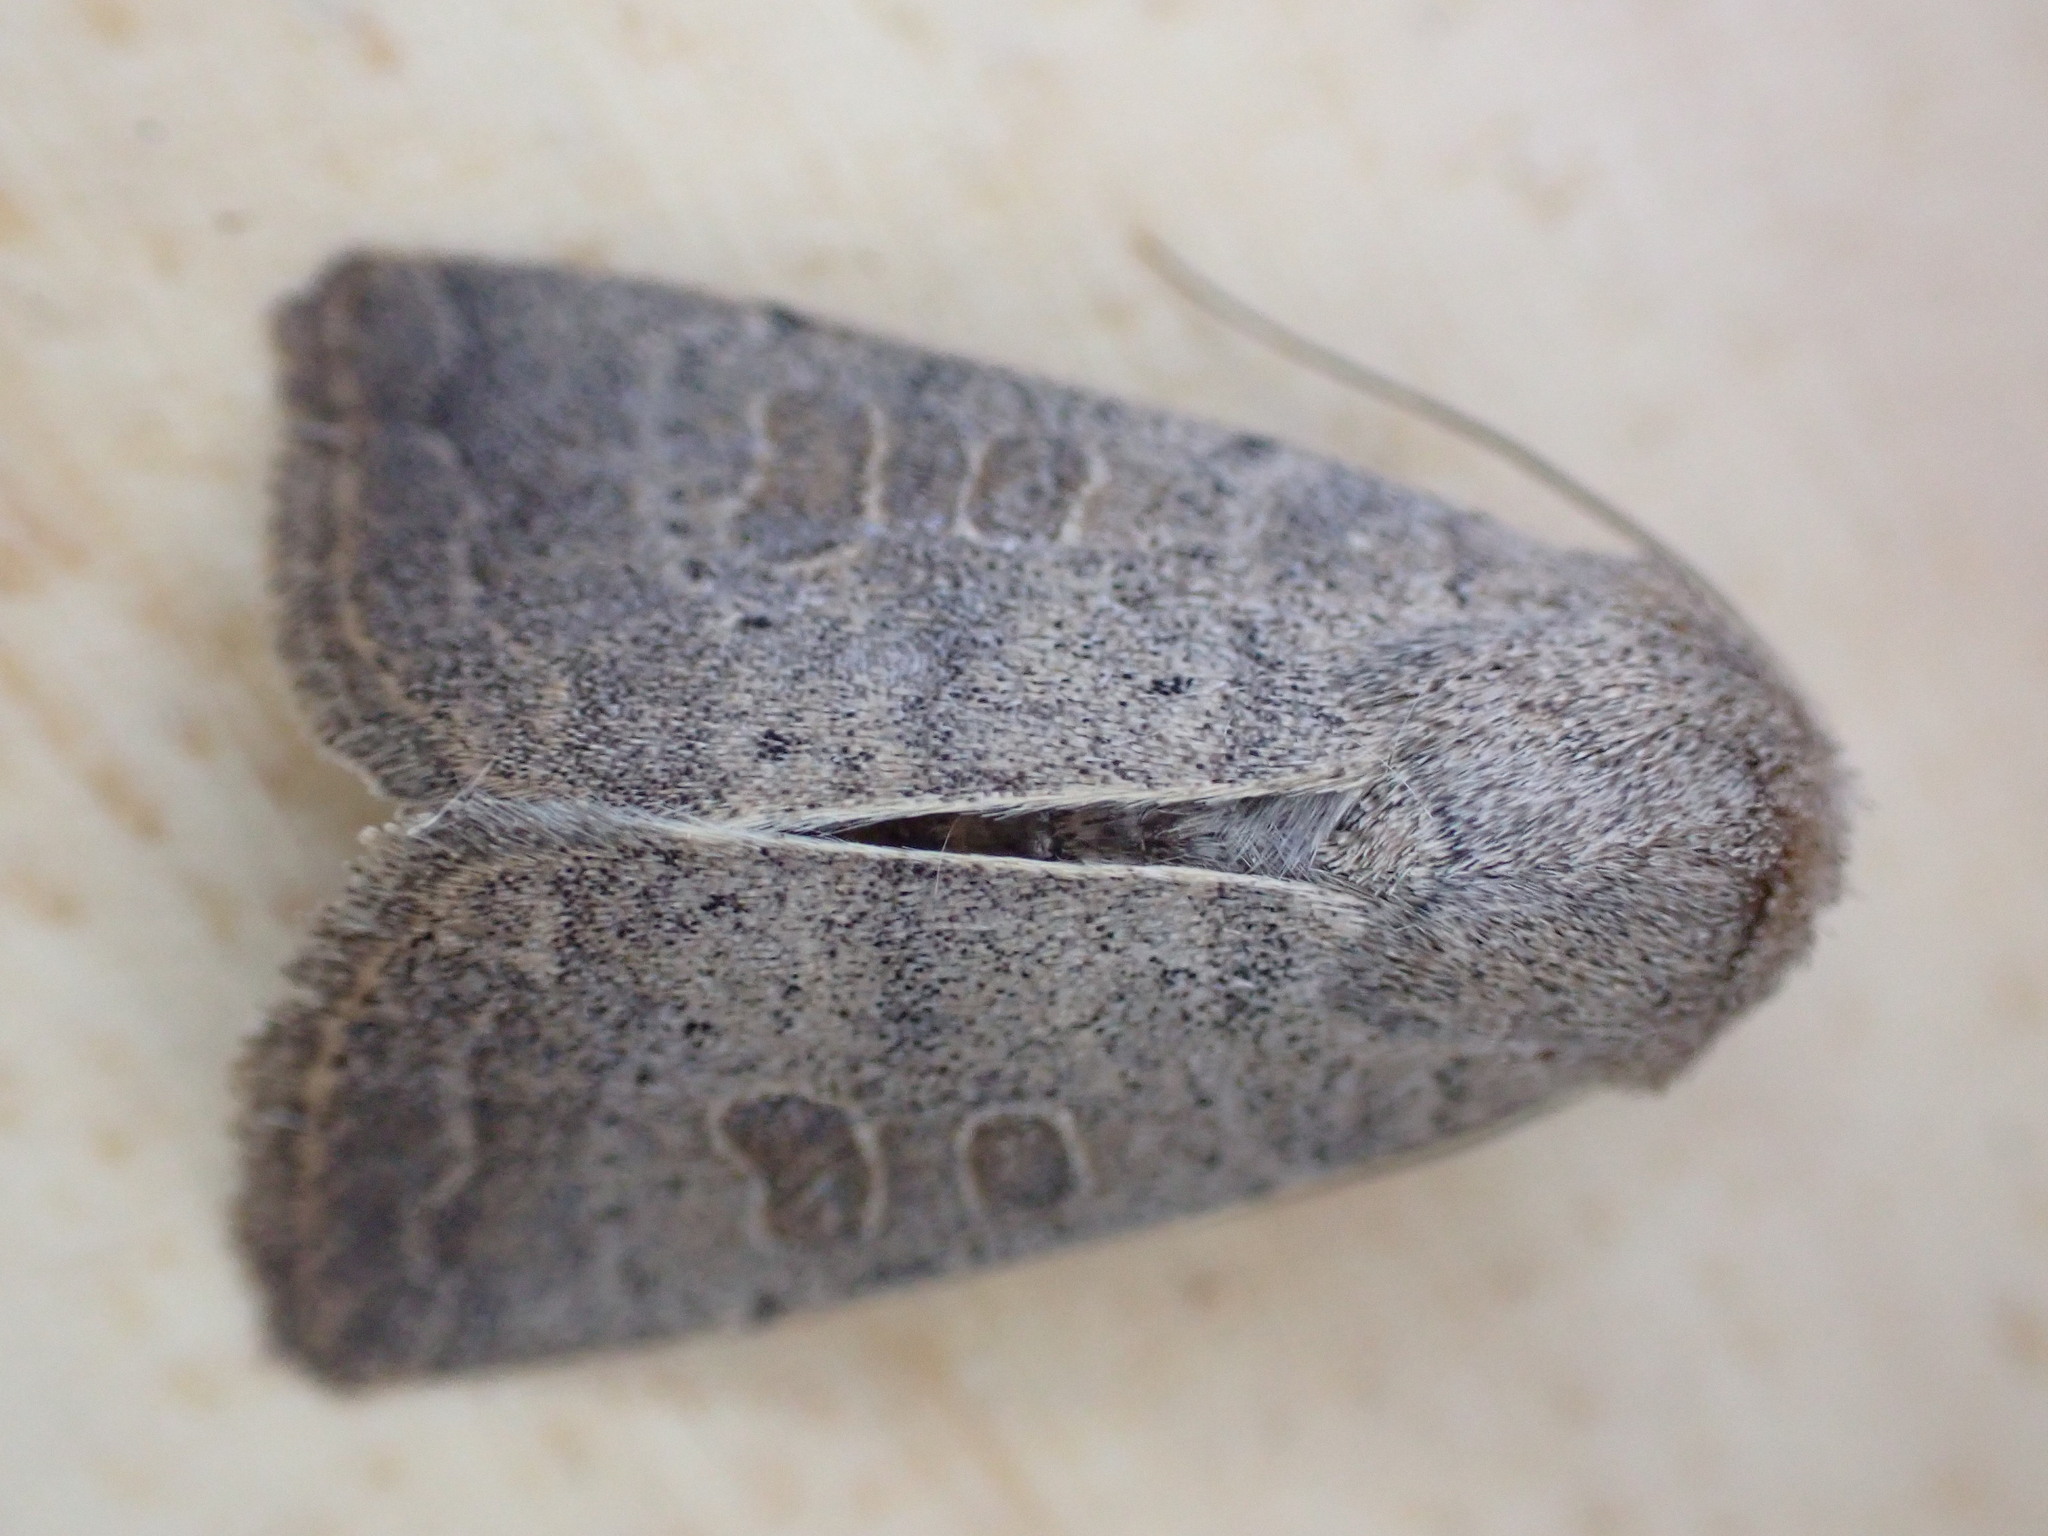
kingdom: Animalia
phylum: Arthropoda
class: Insecta
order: Lepidoptera
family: Noctuidae
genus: Hoplodrina
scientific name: Hoplodrina ambigua
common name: Vine's rustic
